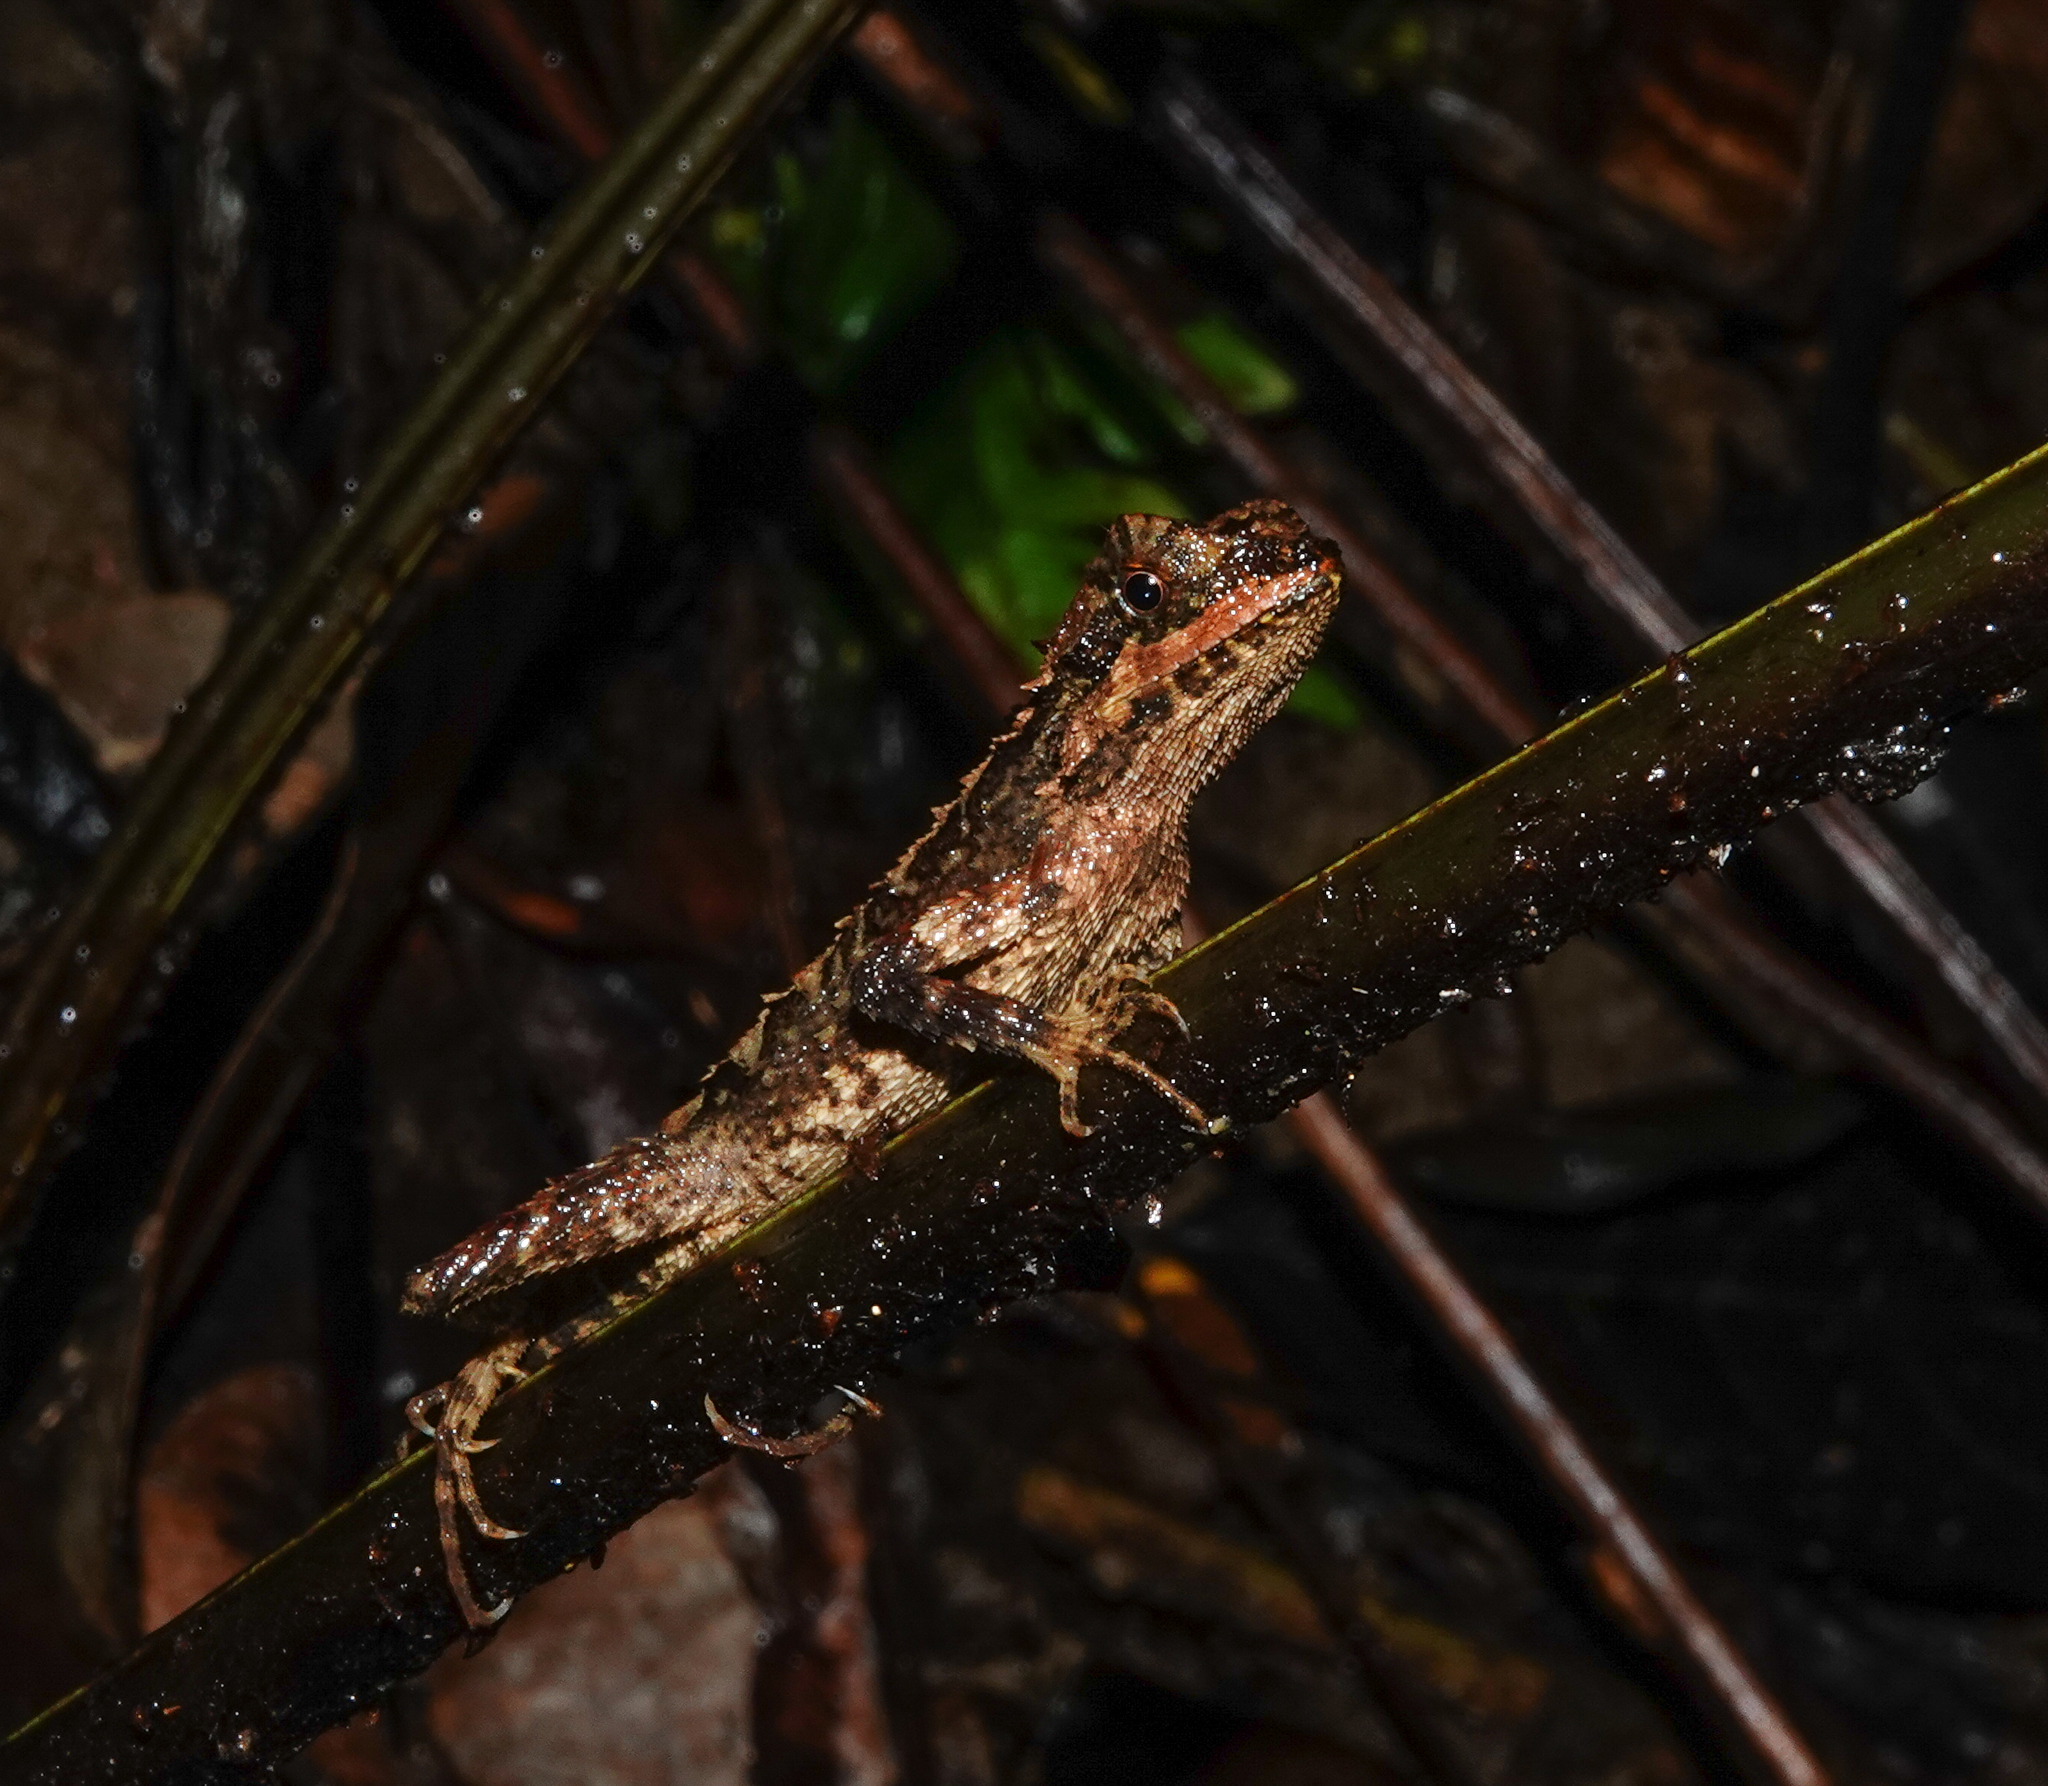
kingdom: Animalia
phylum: Chordata
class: Squamata
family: Agamidae
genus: Cristidorsa
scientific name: Cristidorsa planidorsata
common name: Smooth-scaled mountain lizard
